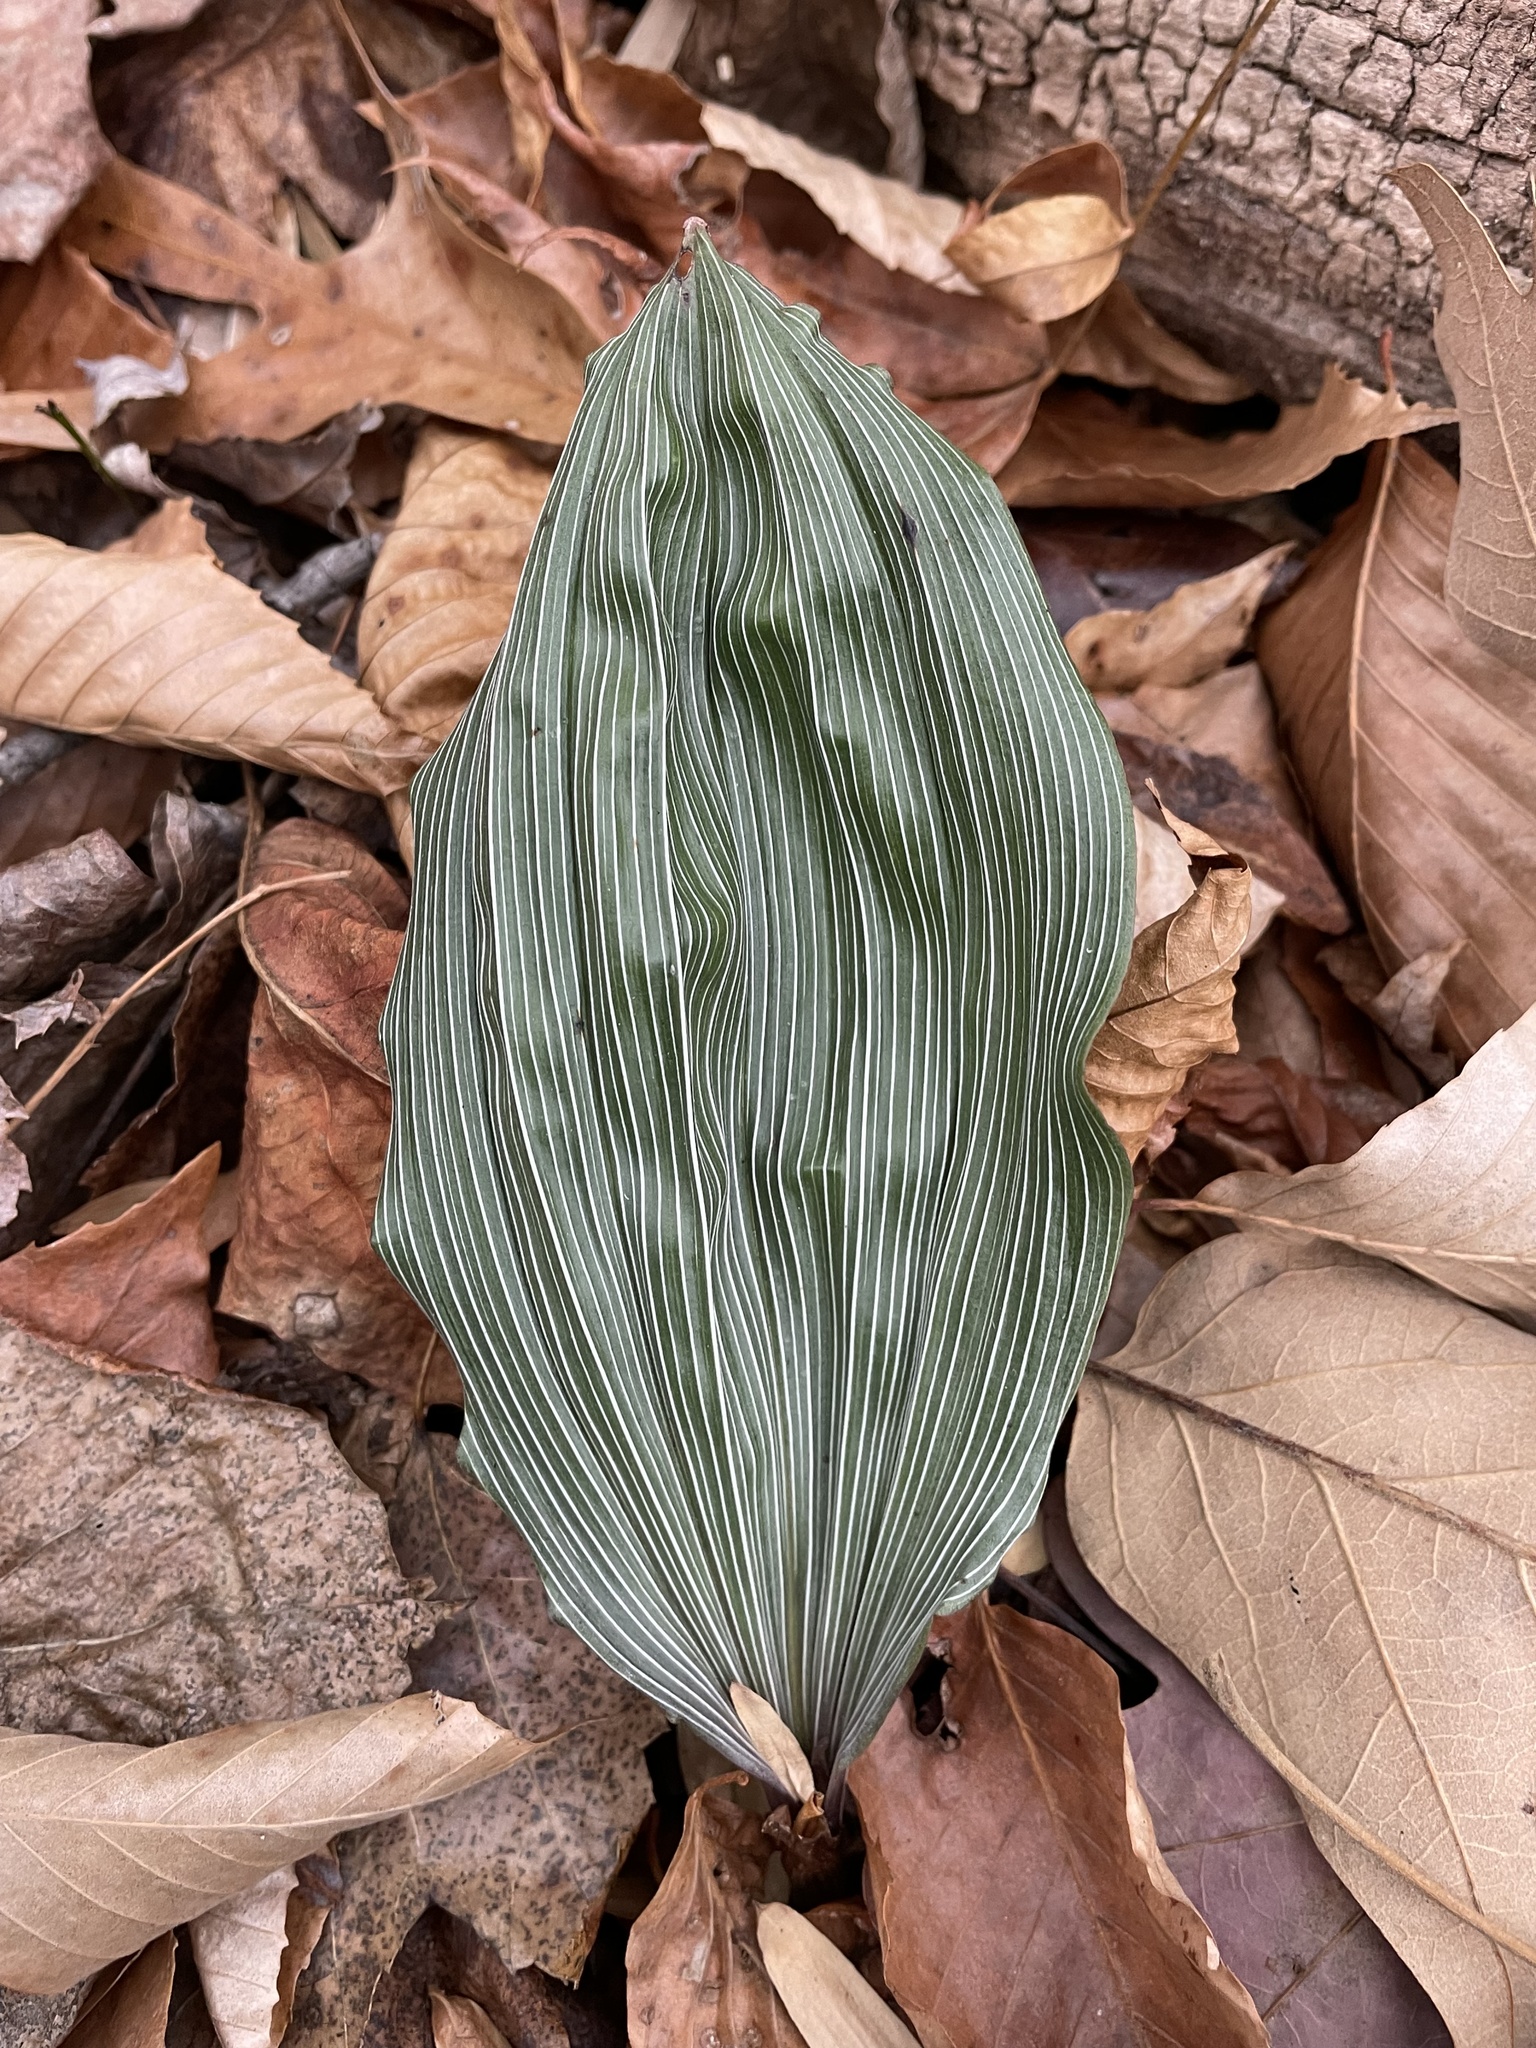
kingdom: Plantae
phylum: Tracheophyta
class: Liliopsida
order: Asparagales
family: Orchidaceae
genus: Aplectrum
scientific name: Aplectrum hyemale
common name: Adam-and-eve
